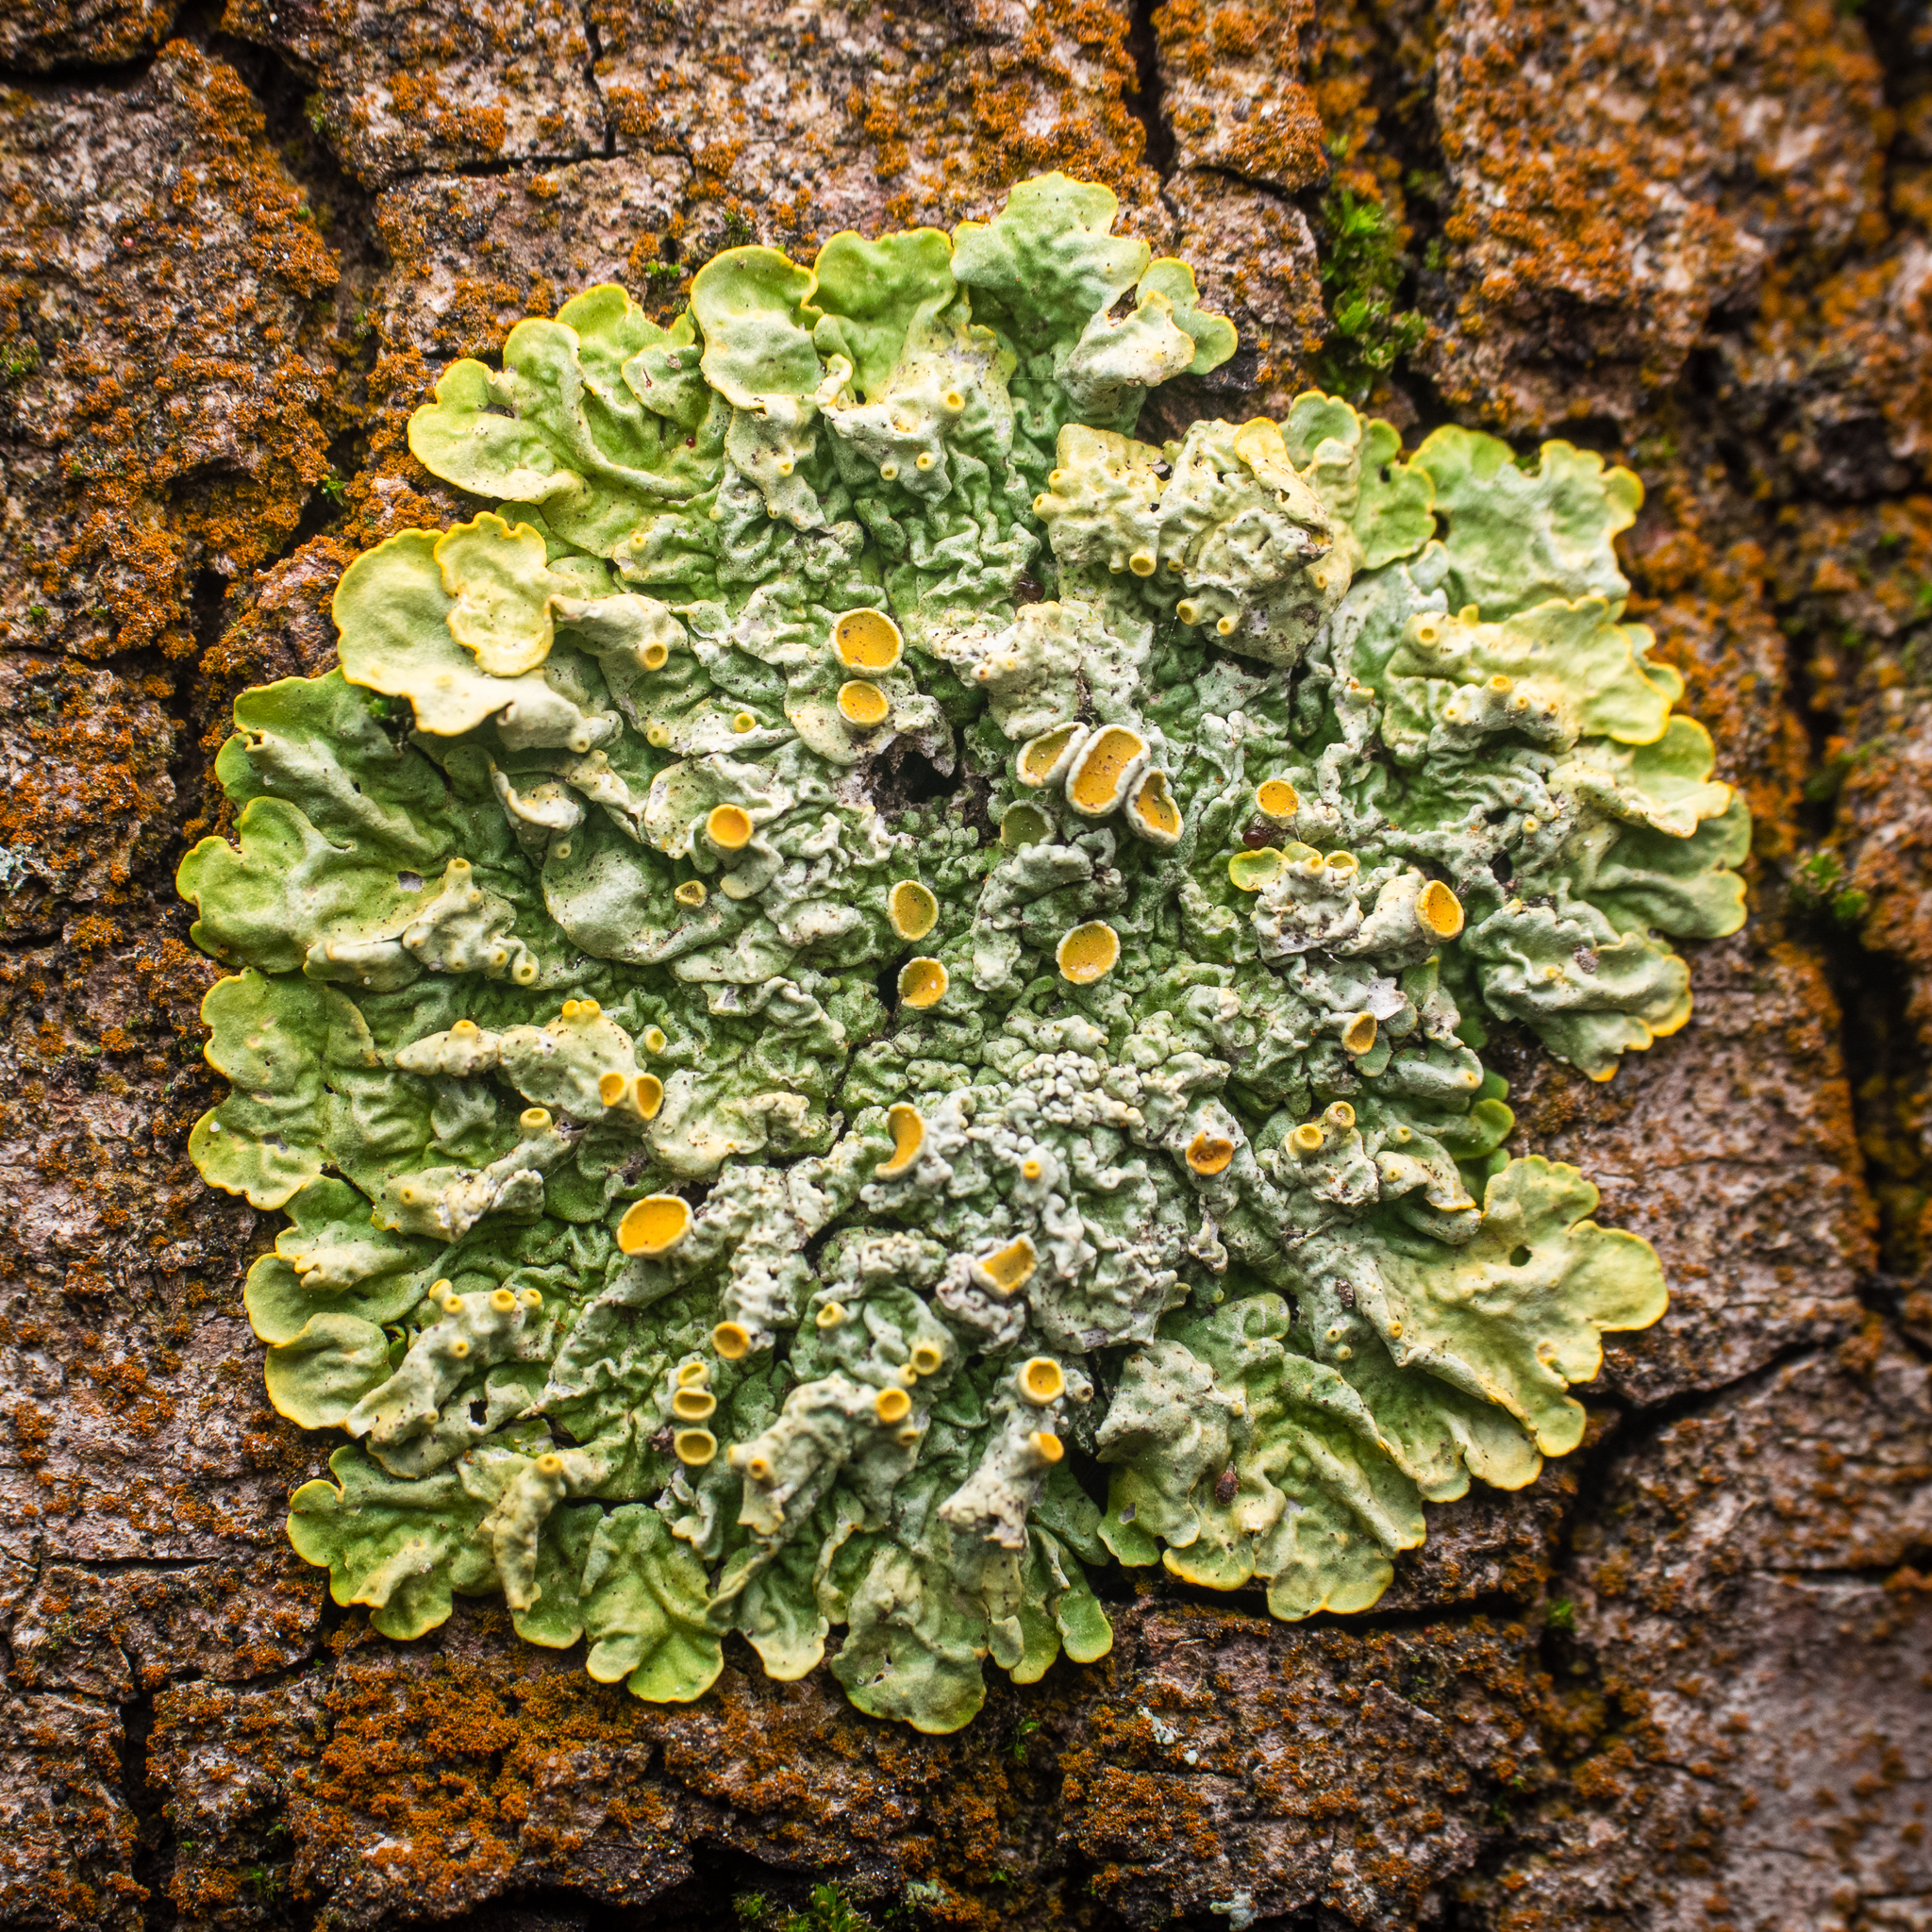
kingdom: Fungi
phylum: Ascomycota
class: Lecanoromycetes
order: Teloschistales
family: Teloschistaceae
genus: Xanthoria
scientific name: Xanthoria parietina
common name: Common orange lichen
